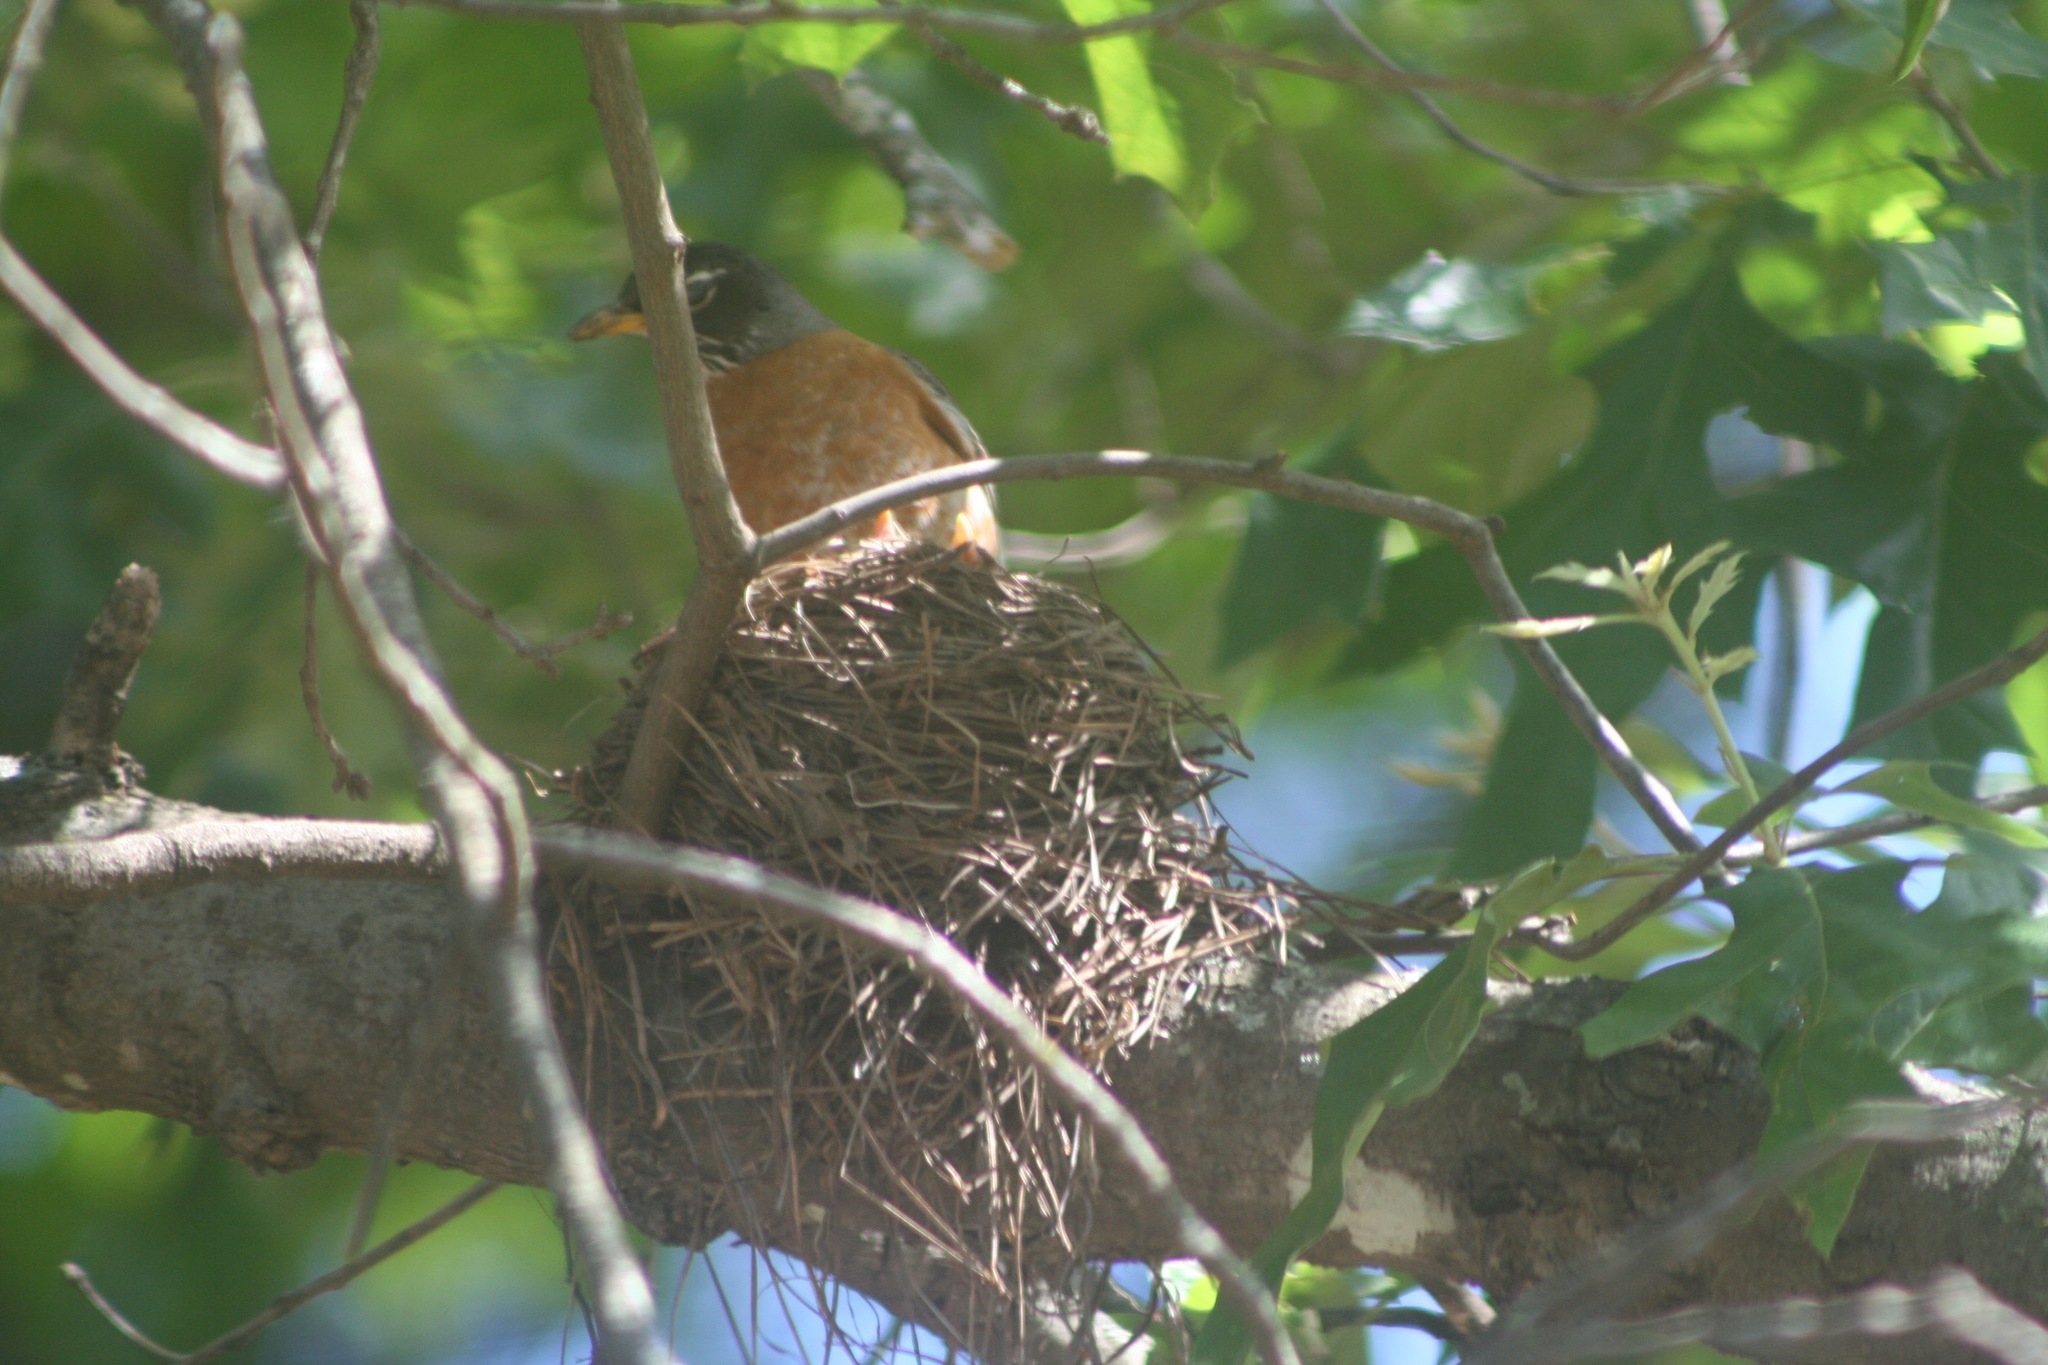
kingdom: Animalia
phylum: Chordata
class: Aves
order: Passeriformes
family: Turdidae
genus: Turdus
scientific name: Turdus migratorius
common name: American robin
